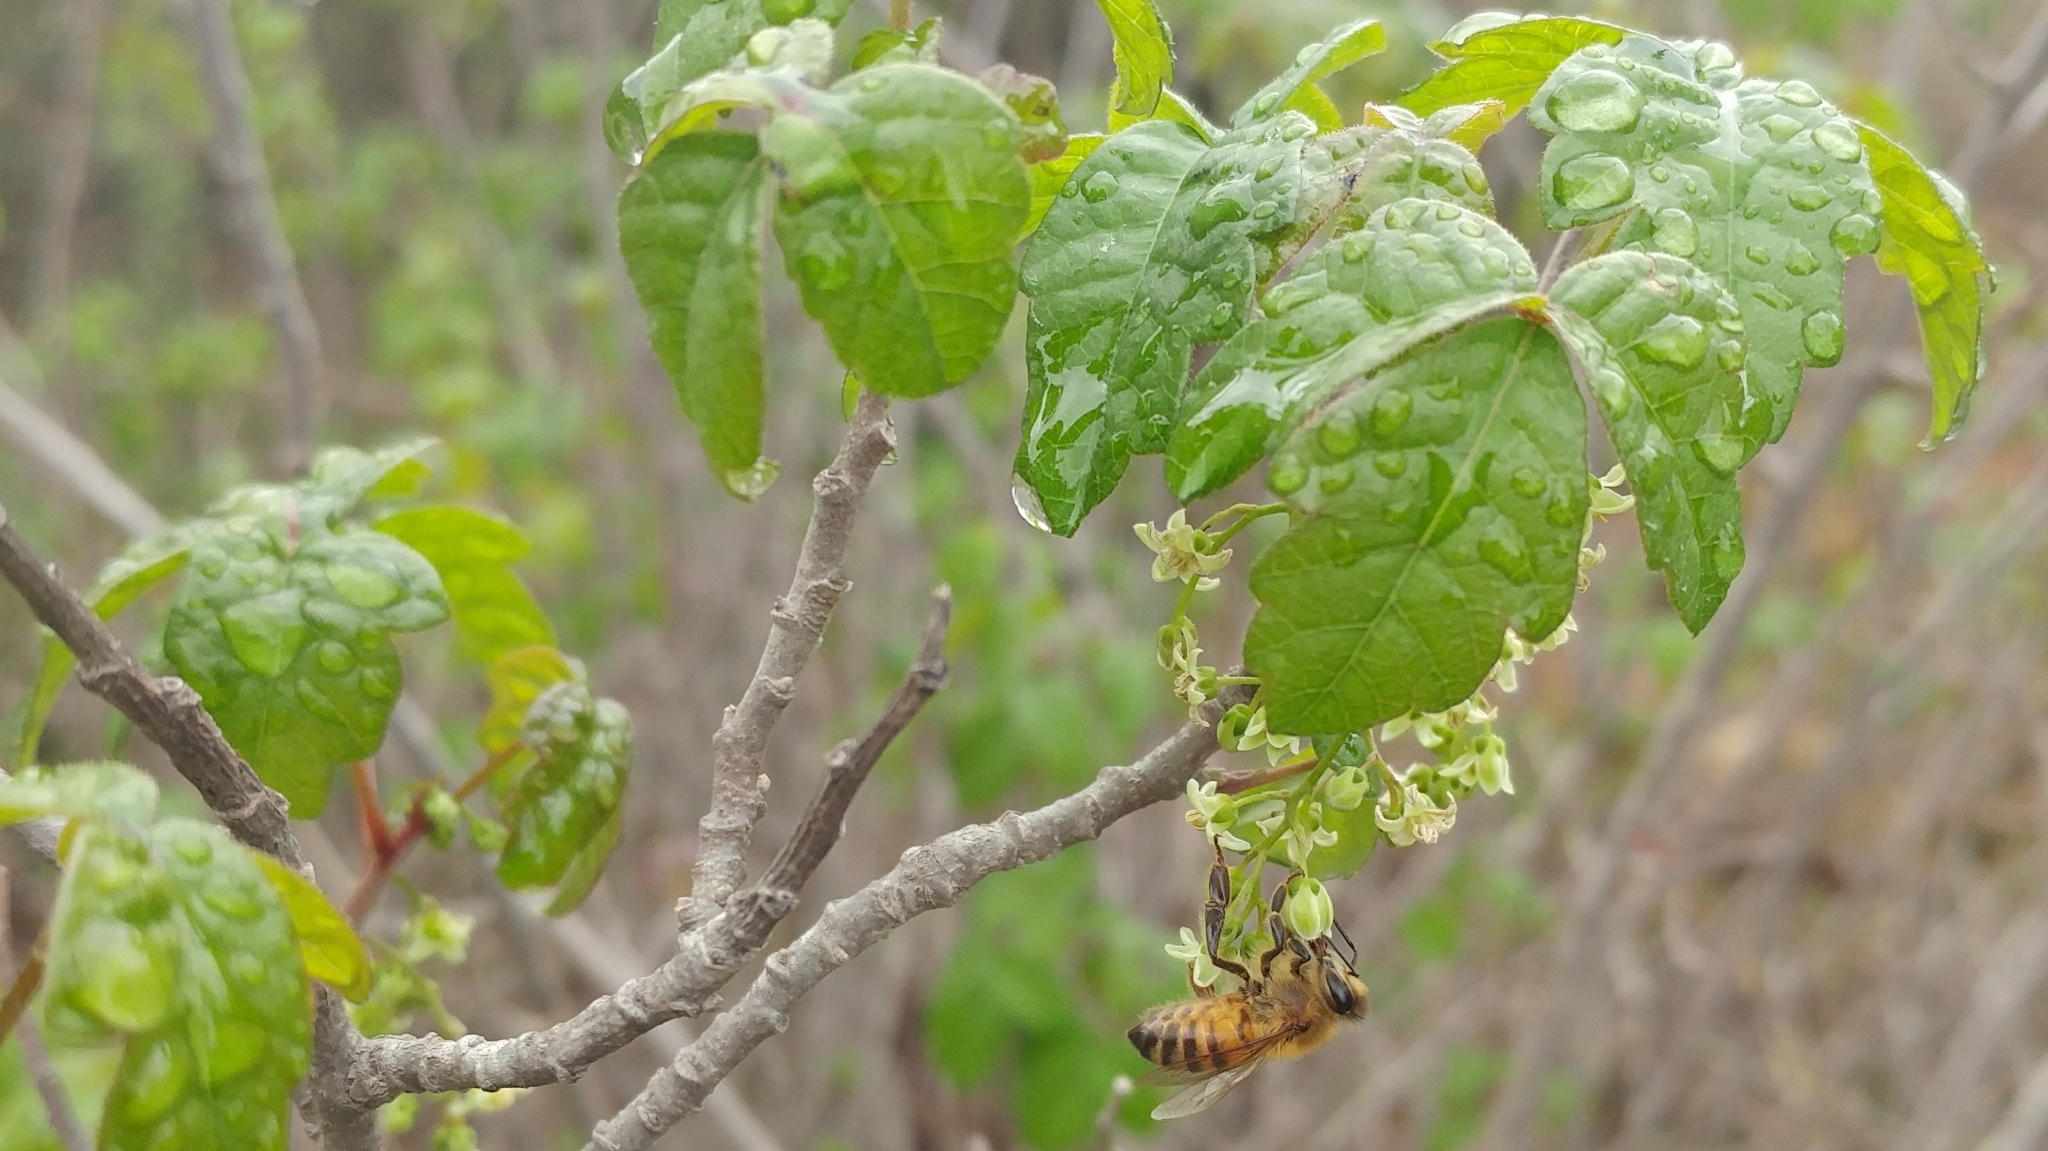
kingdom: Animalia
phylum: Arthropoda
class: Insecta
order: Hymenoptera
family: Apidae
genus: Apis
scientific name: Apis mellifera
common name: Honey bee
